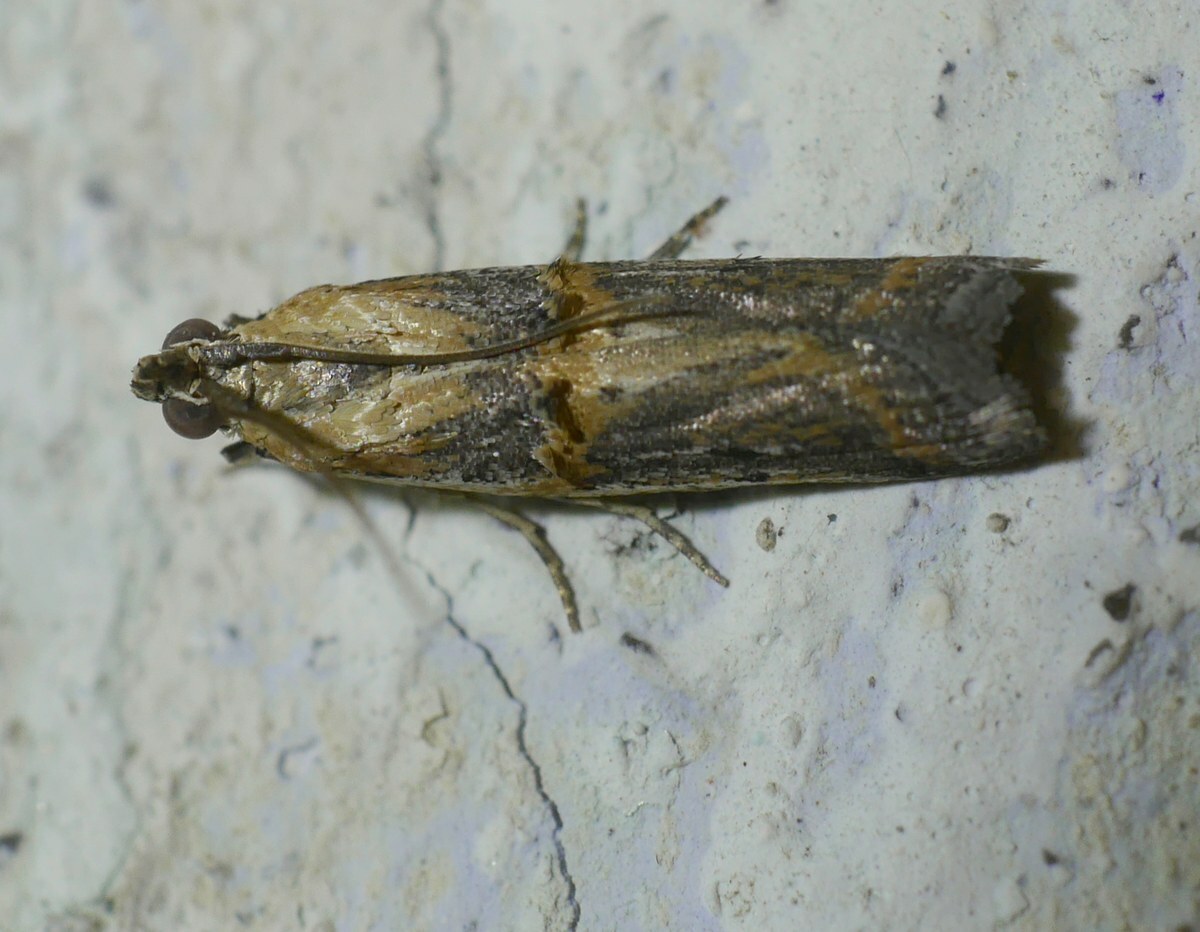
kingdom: Animalia
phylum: Arthropoda
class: Insecta
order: Lepidoptera
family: Pyralidae
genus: Psorosa
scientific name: Psorosa dahliella
